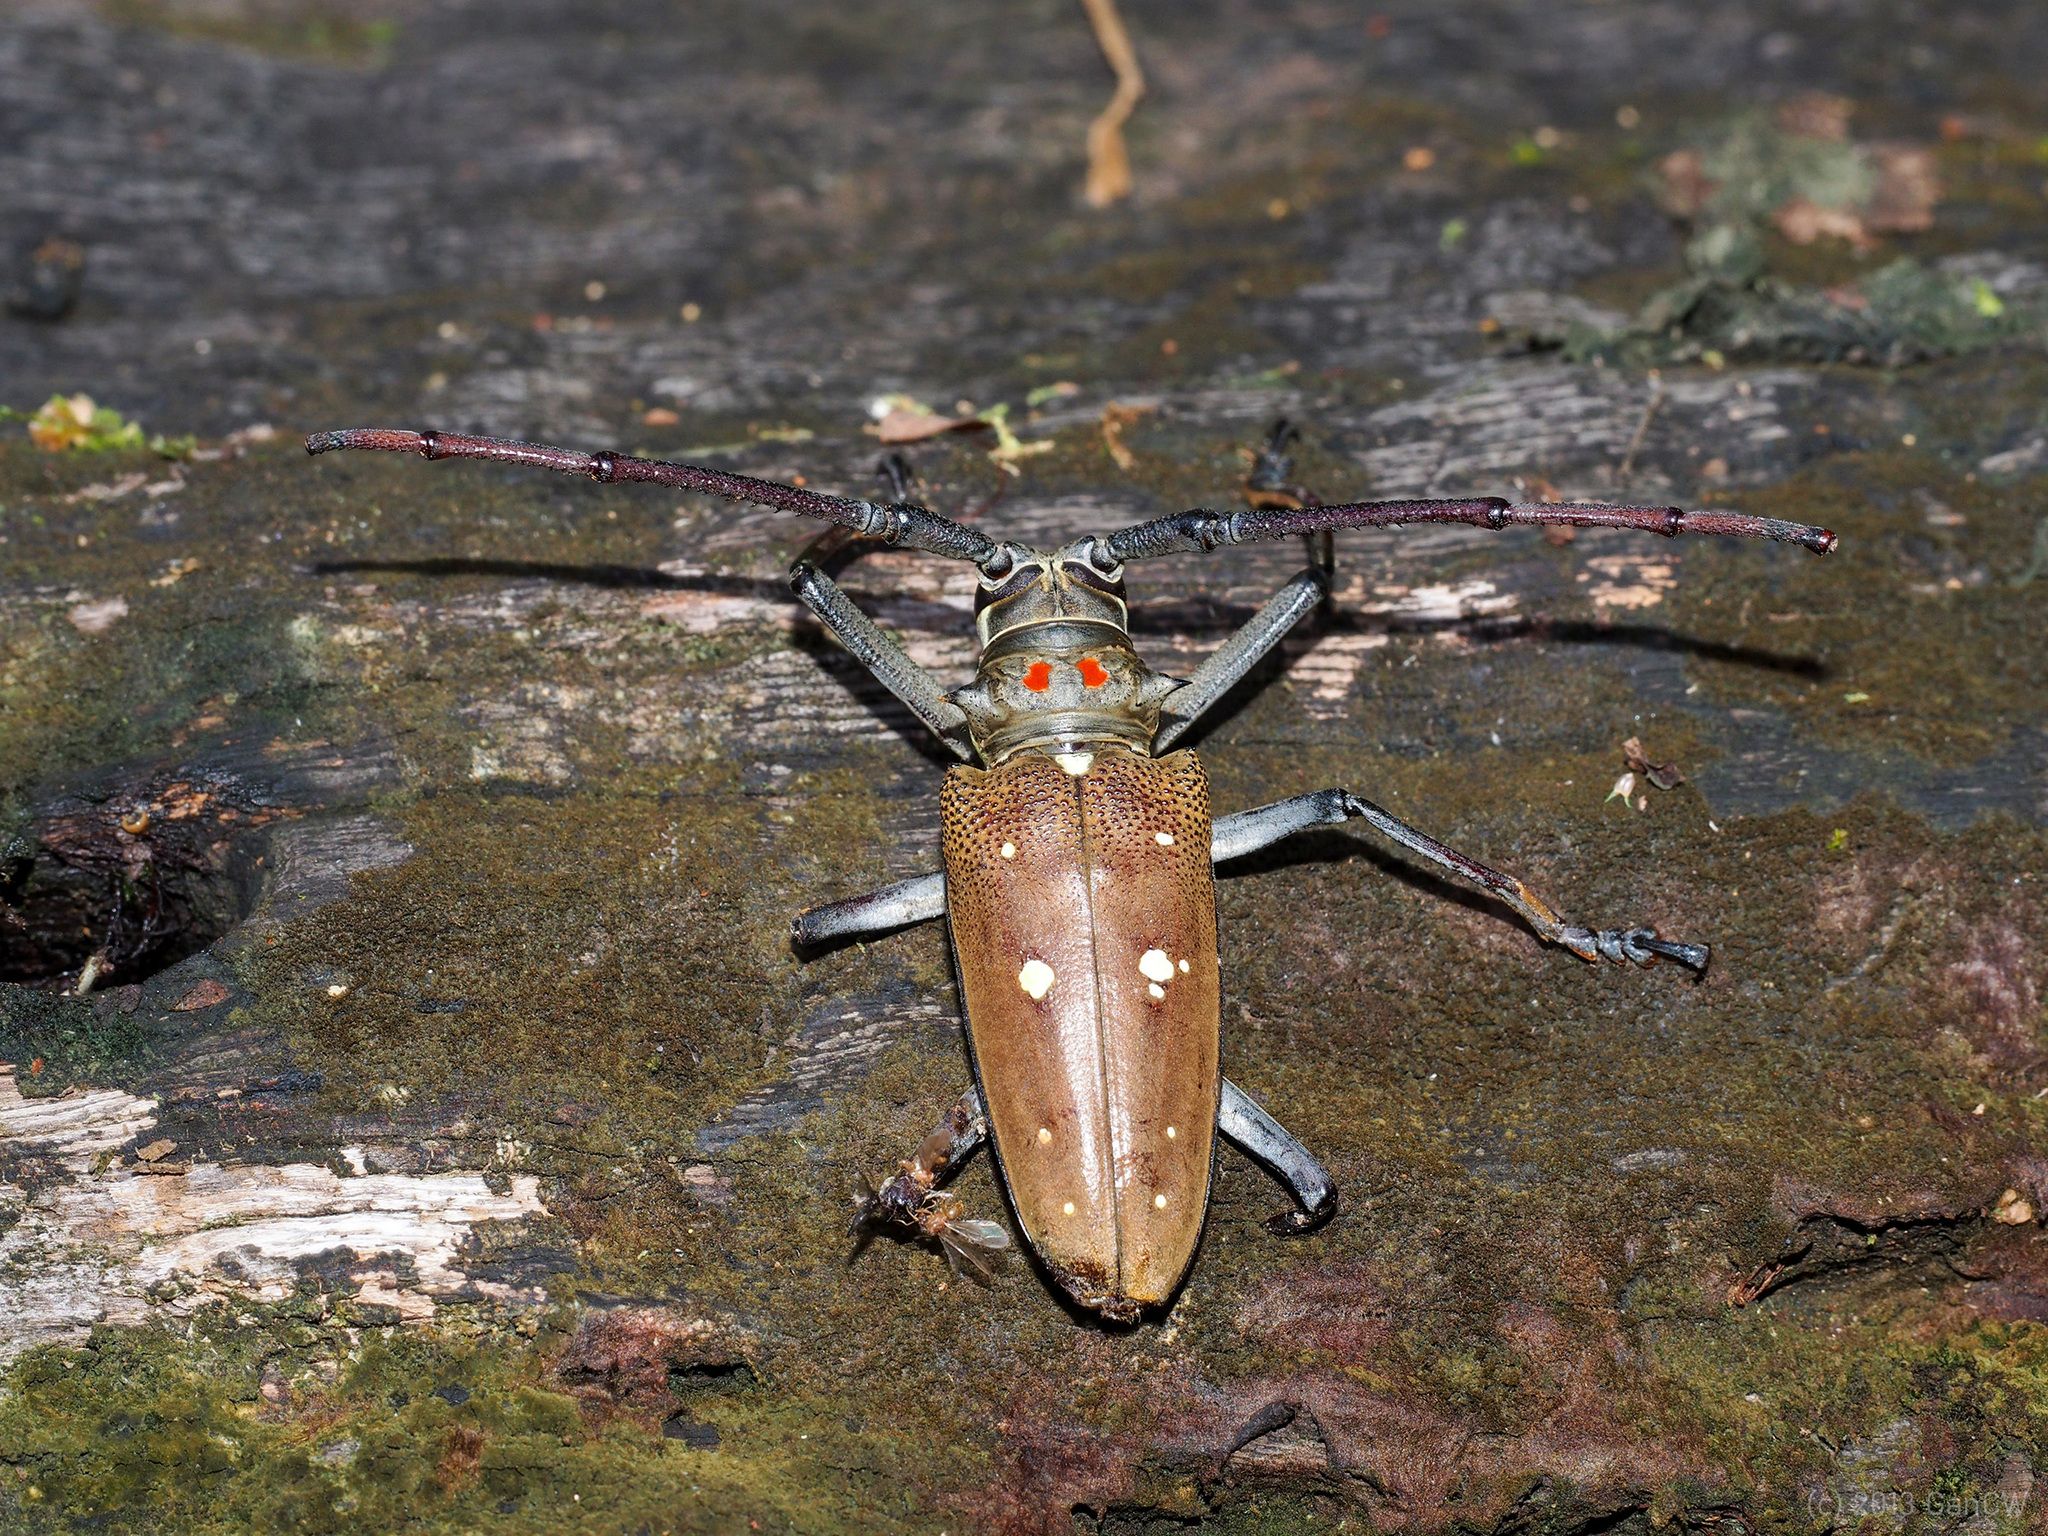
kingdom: Animalia
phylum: Arthropoda
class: Insecta
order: Coleoptera
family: Cerambycidae
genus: Batocera
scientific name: Batocera thomsonii
